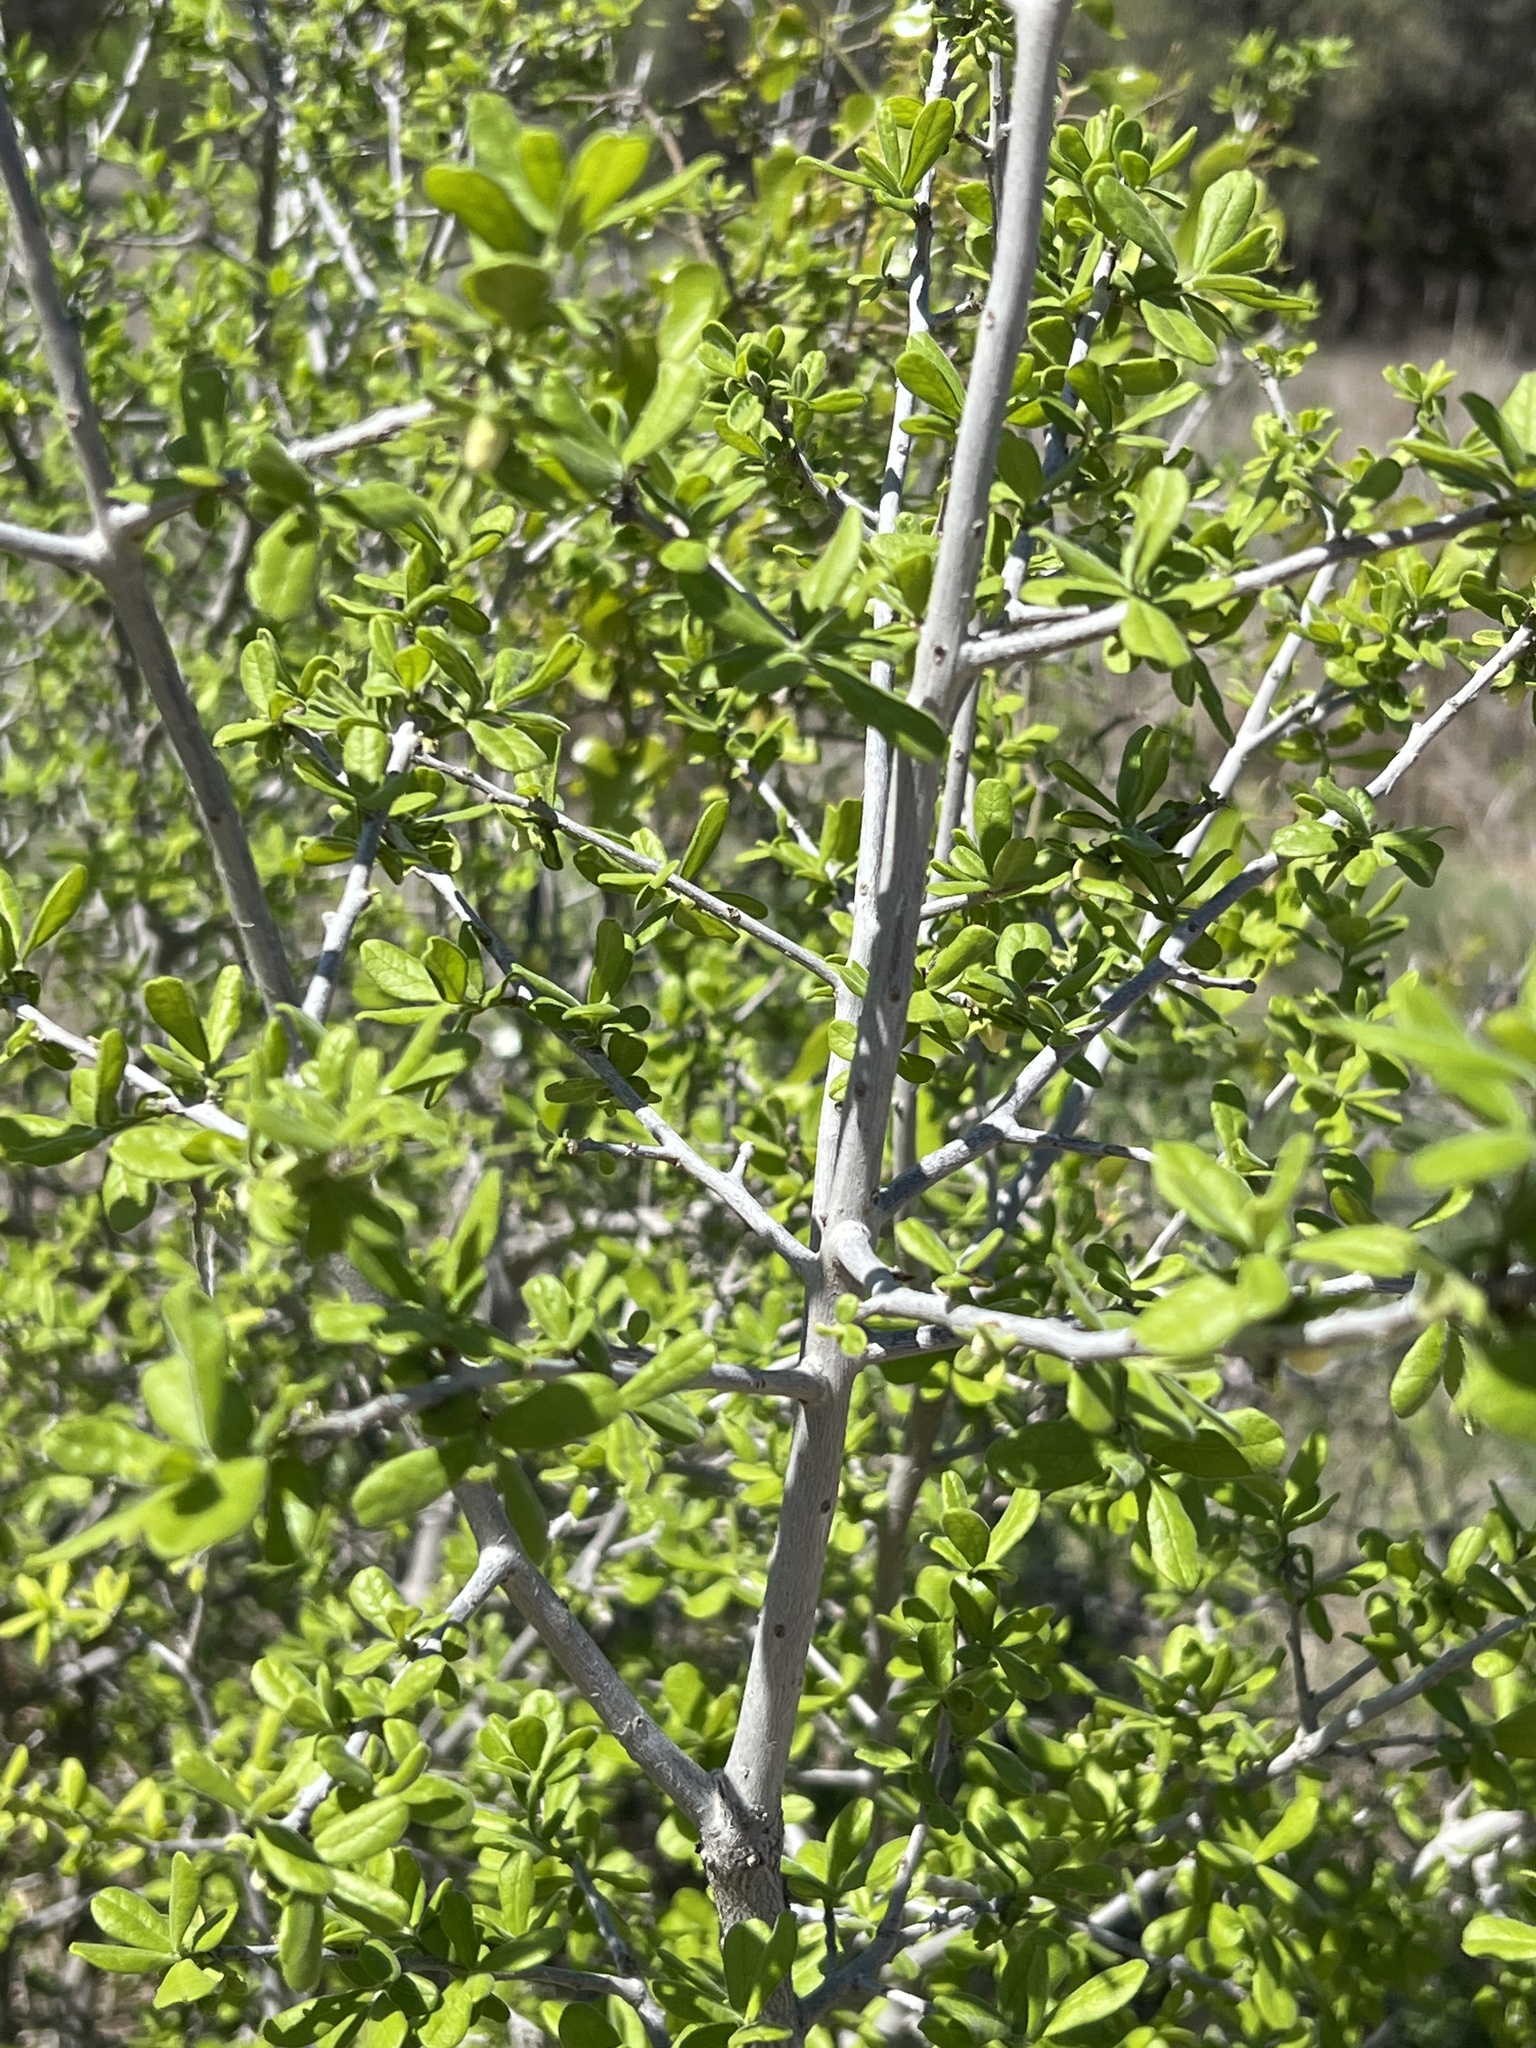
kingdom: Plantae
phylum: Tracheophyta
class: Magnoliopsida
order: Lamiales
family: Oleaceae
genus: Forestiera
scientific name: Forestiera pubescens
